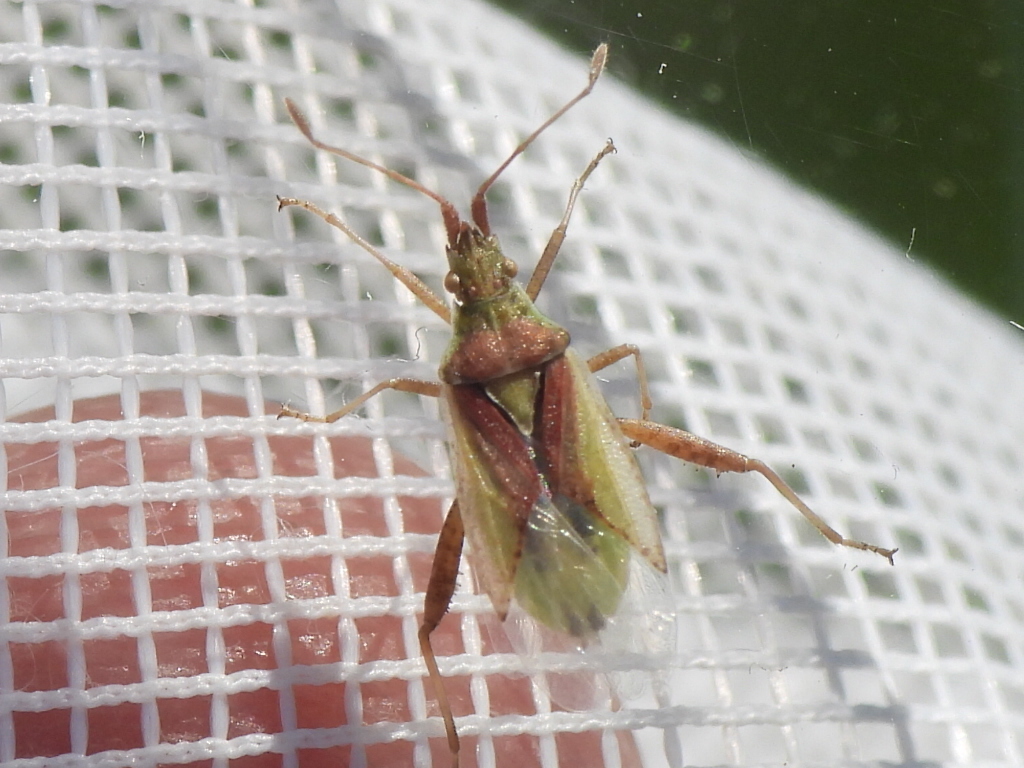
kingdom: Animalia
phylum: Arthropoda
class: Insecta
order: Hemiptera
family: Rhopalidae
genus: Harmostes
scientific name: Harmostes reflexulus
